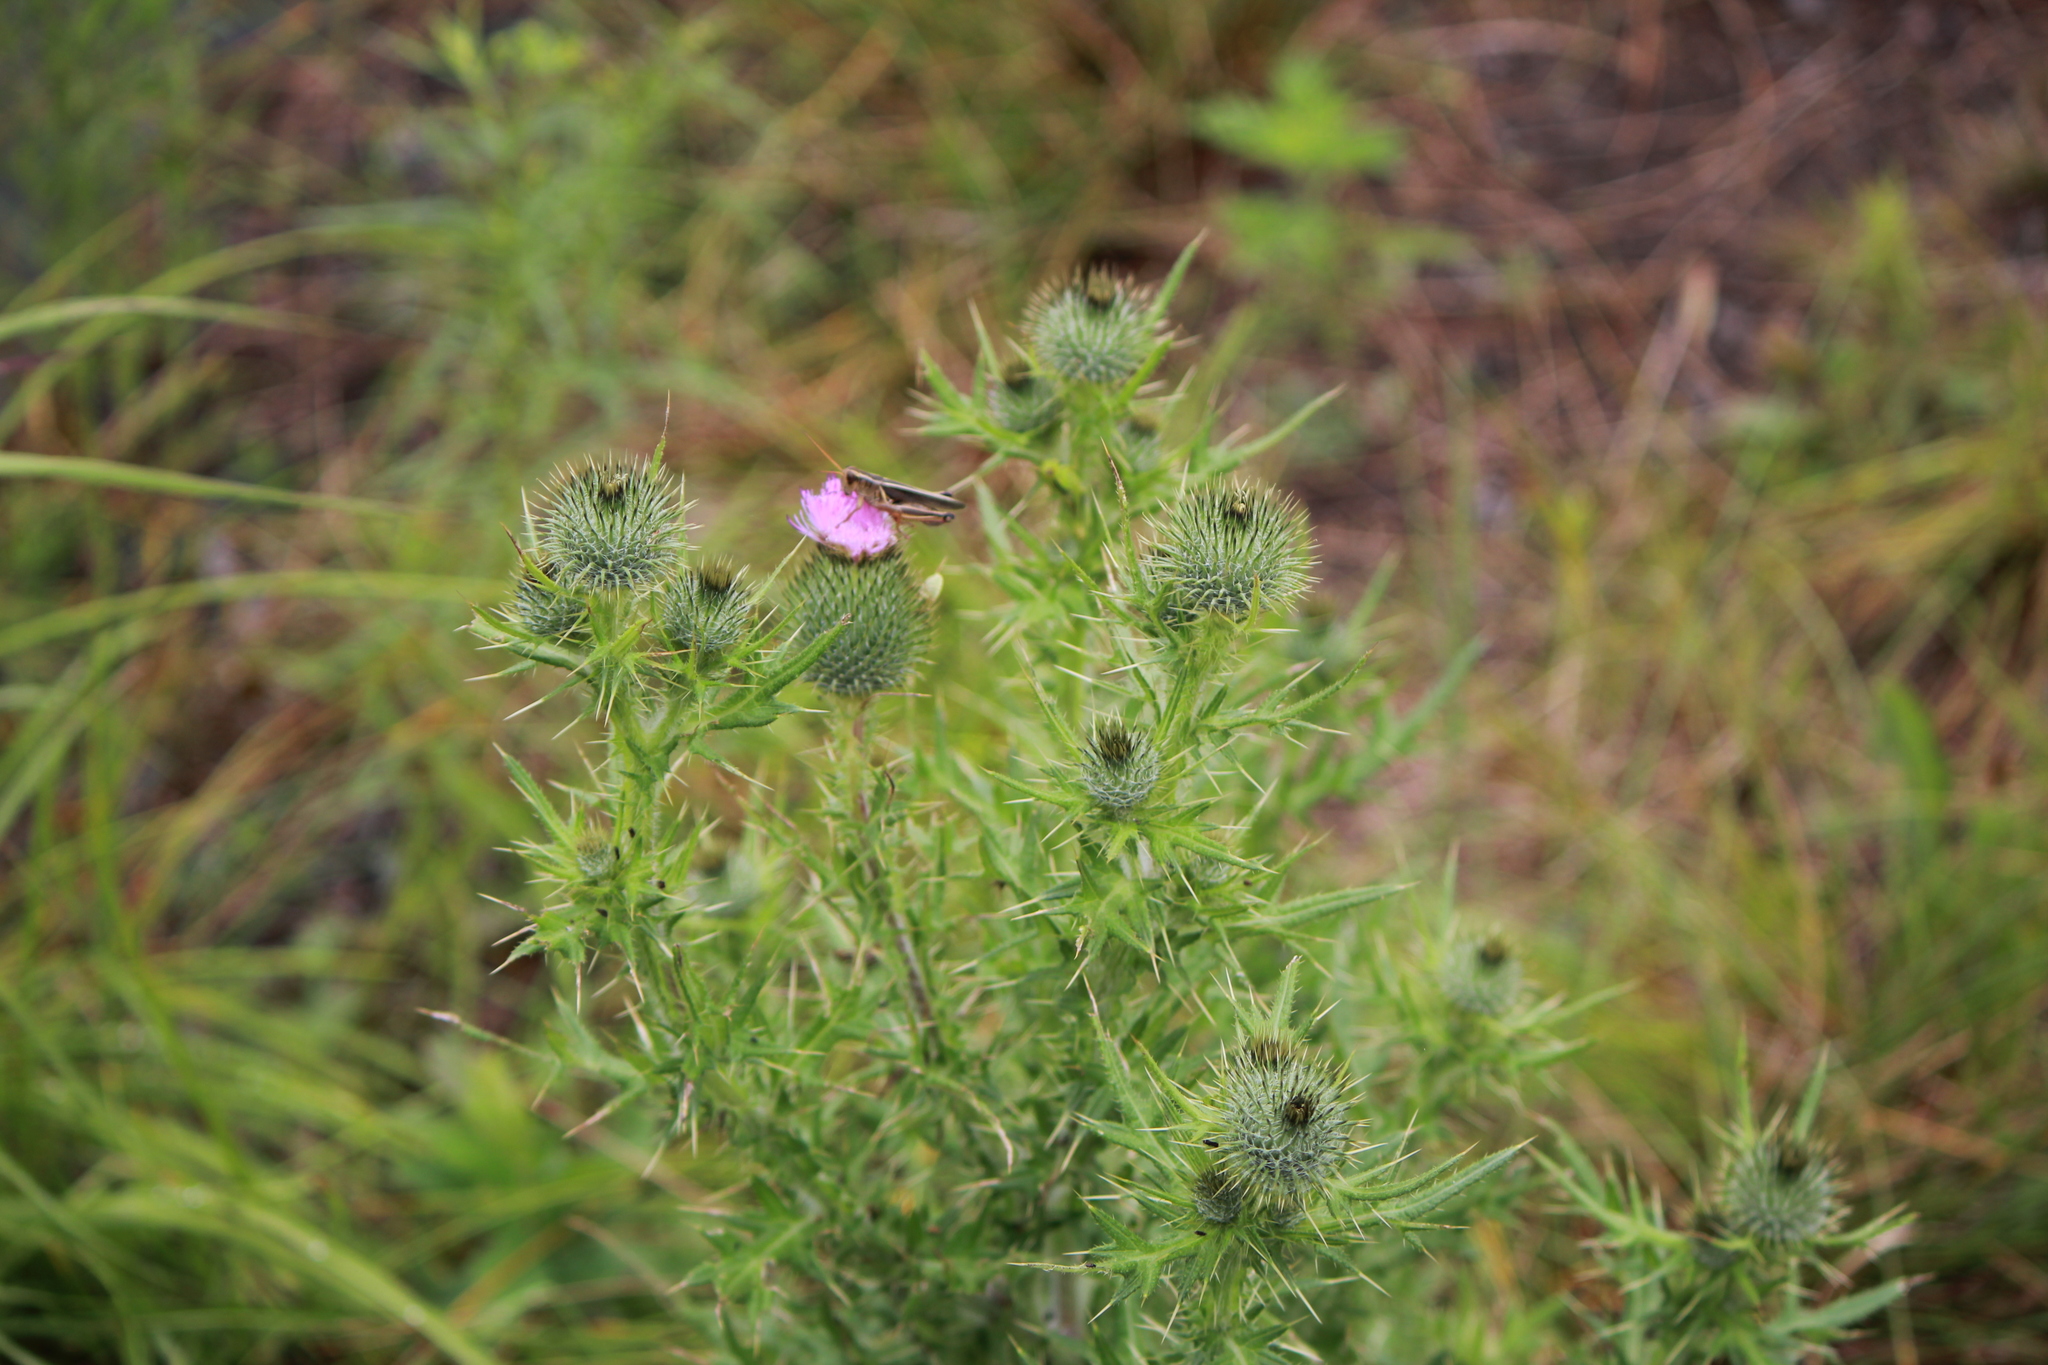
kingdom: Plantae
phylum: Tracheophyta
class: Magnoliopsida
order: Asterales
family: Asteraceae
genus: Cirsium
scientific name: Cirsium vulgare
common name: Bull thistle
